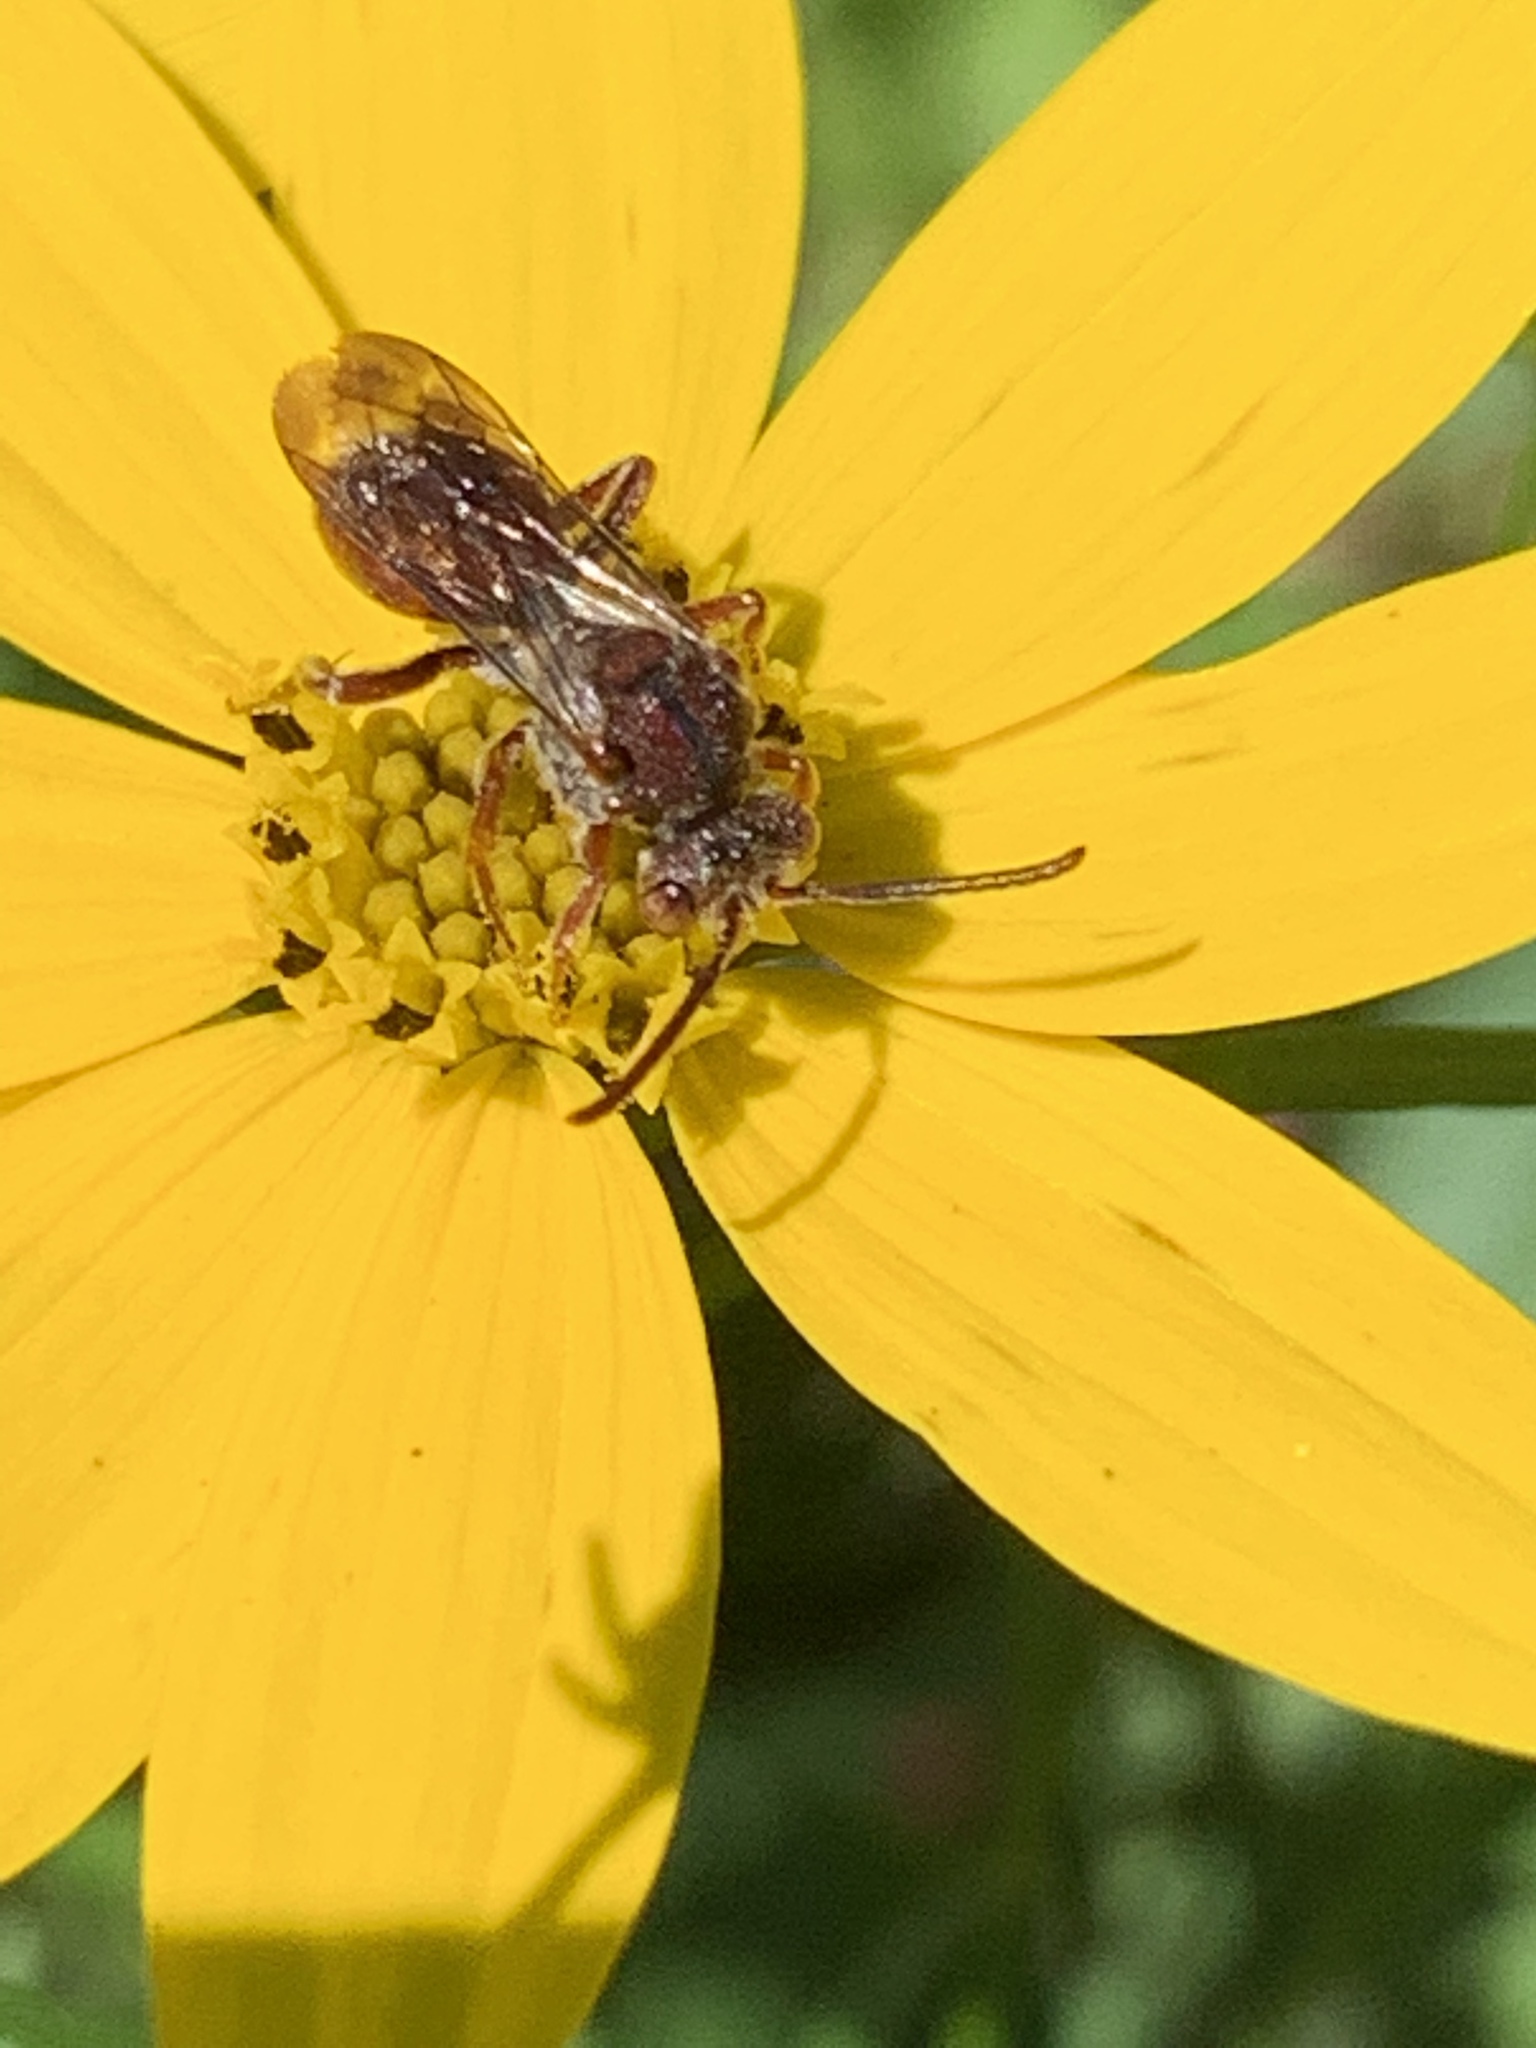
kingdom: Animalia
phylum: Arthropoda
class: Insecta
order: Hymenoptera
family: Apidae
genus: Nomada
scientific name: Nomada
